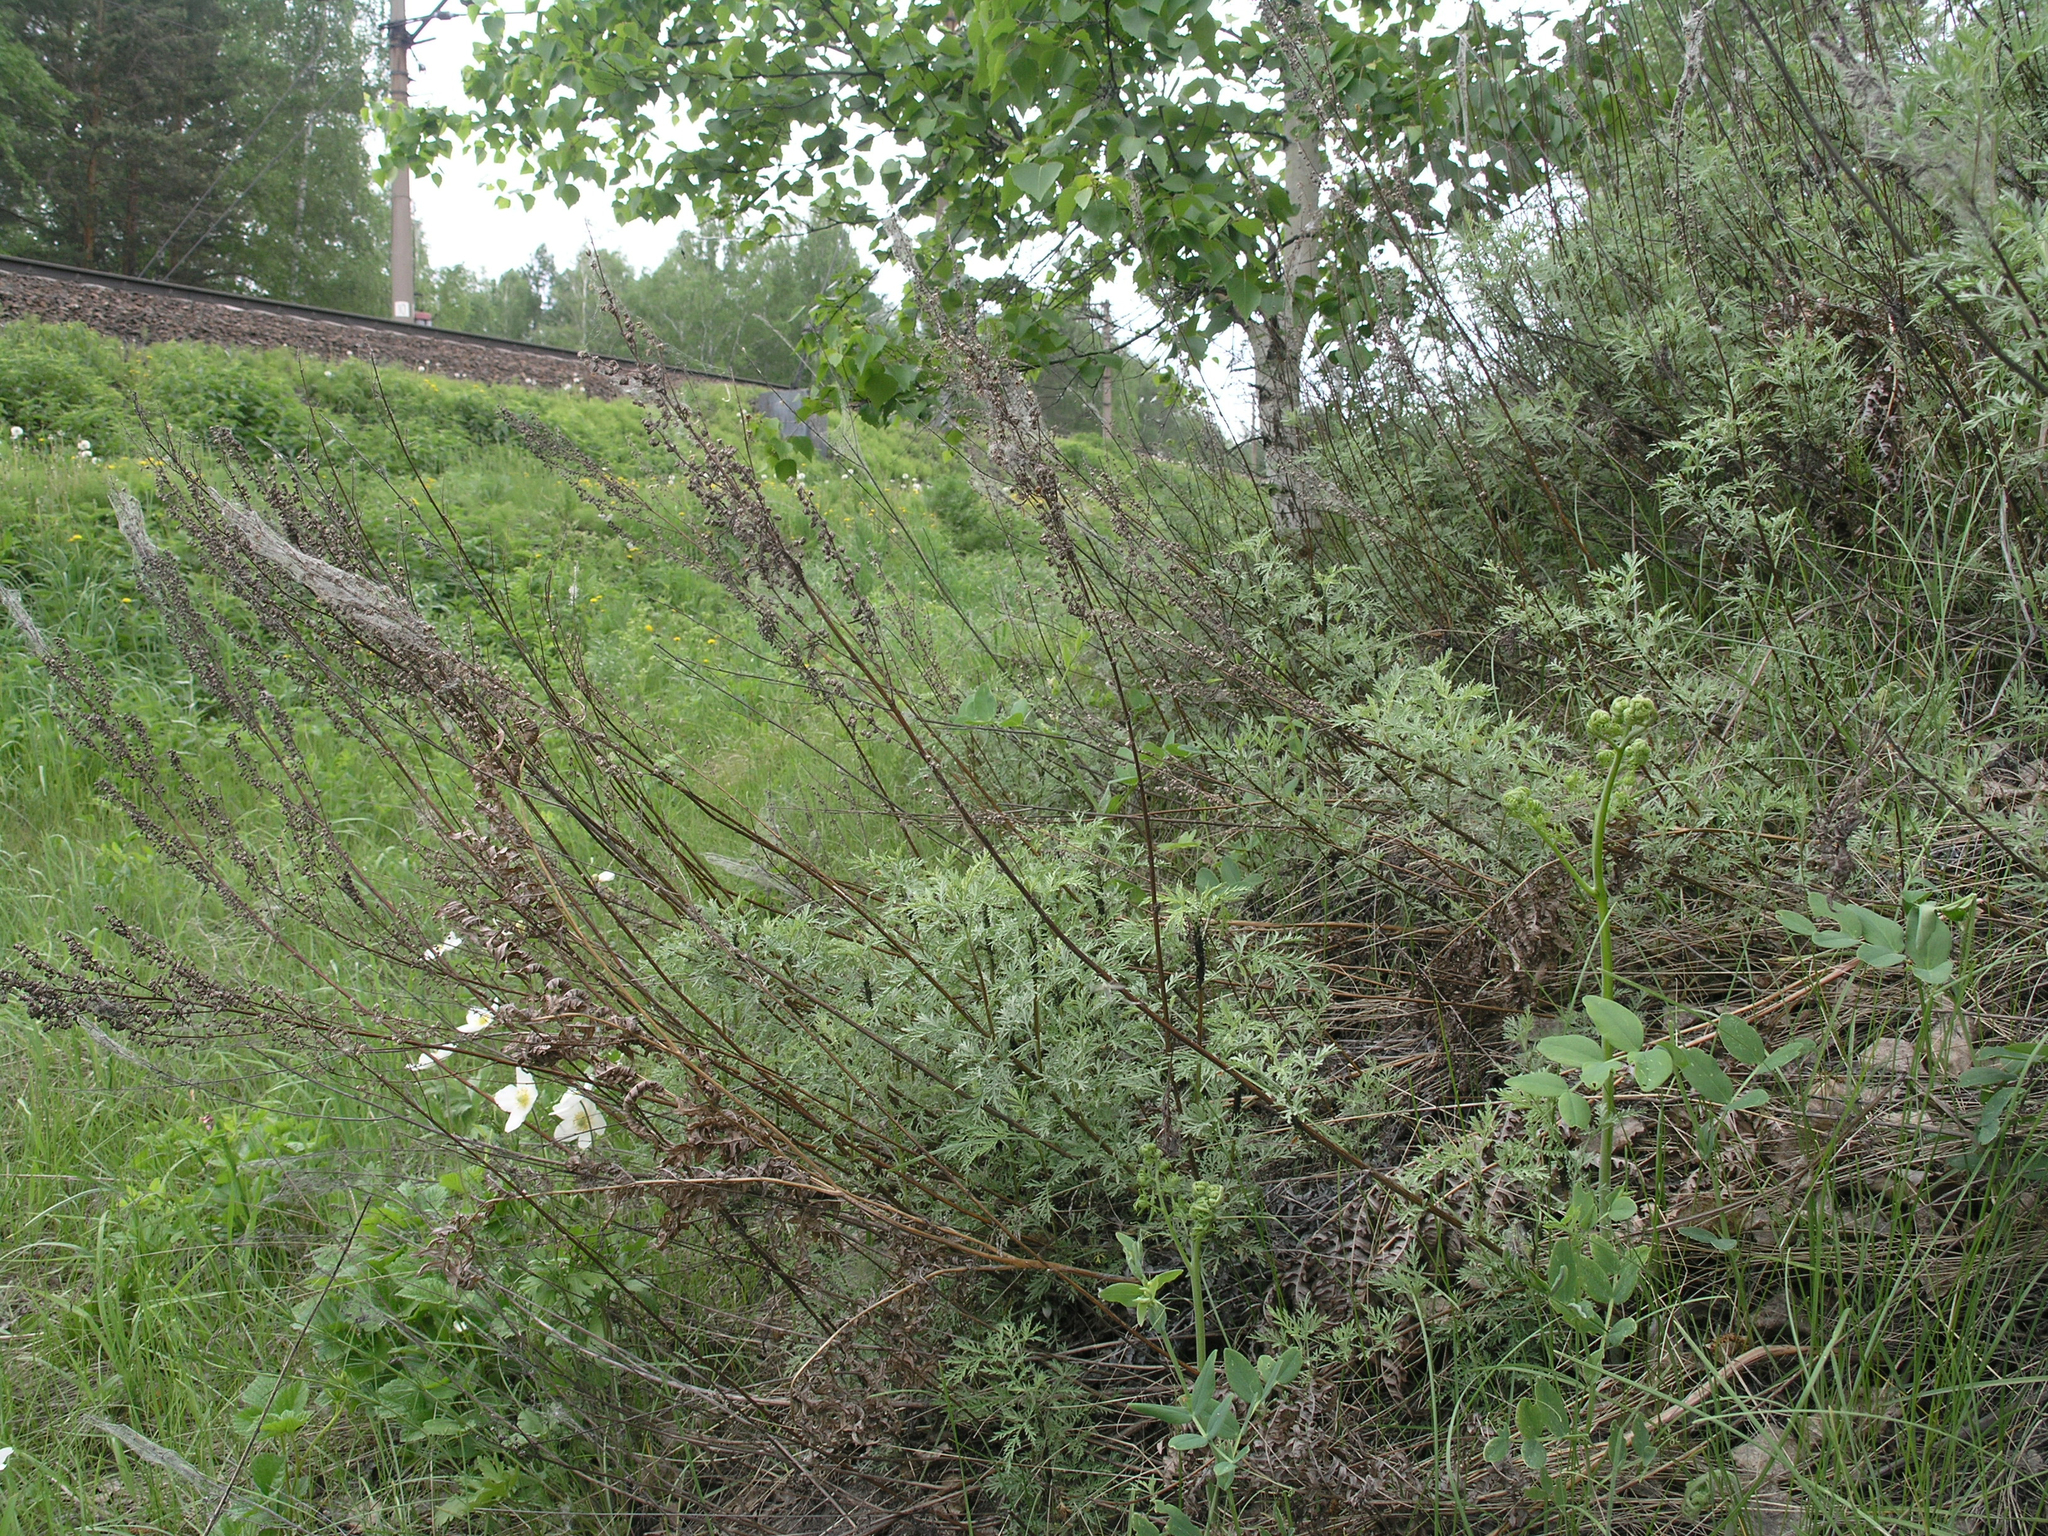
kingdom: Plantae
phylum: Tracheophyta
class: Magnoliopsida
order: Asterales
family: Asteraceae
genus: Artemisia
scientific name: Artemisia gmelinii
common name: Gmelin's wormwood
